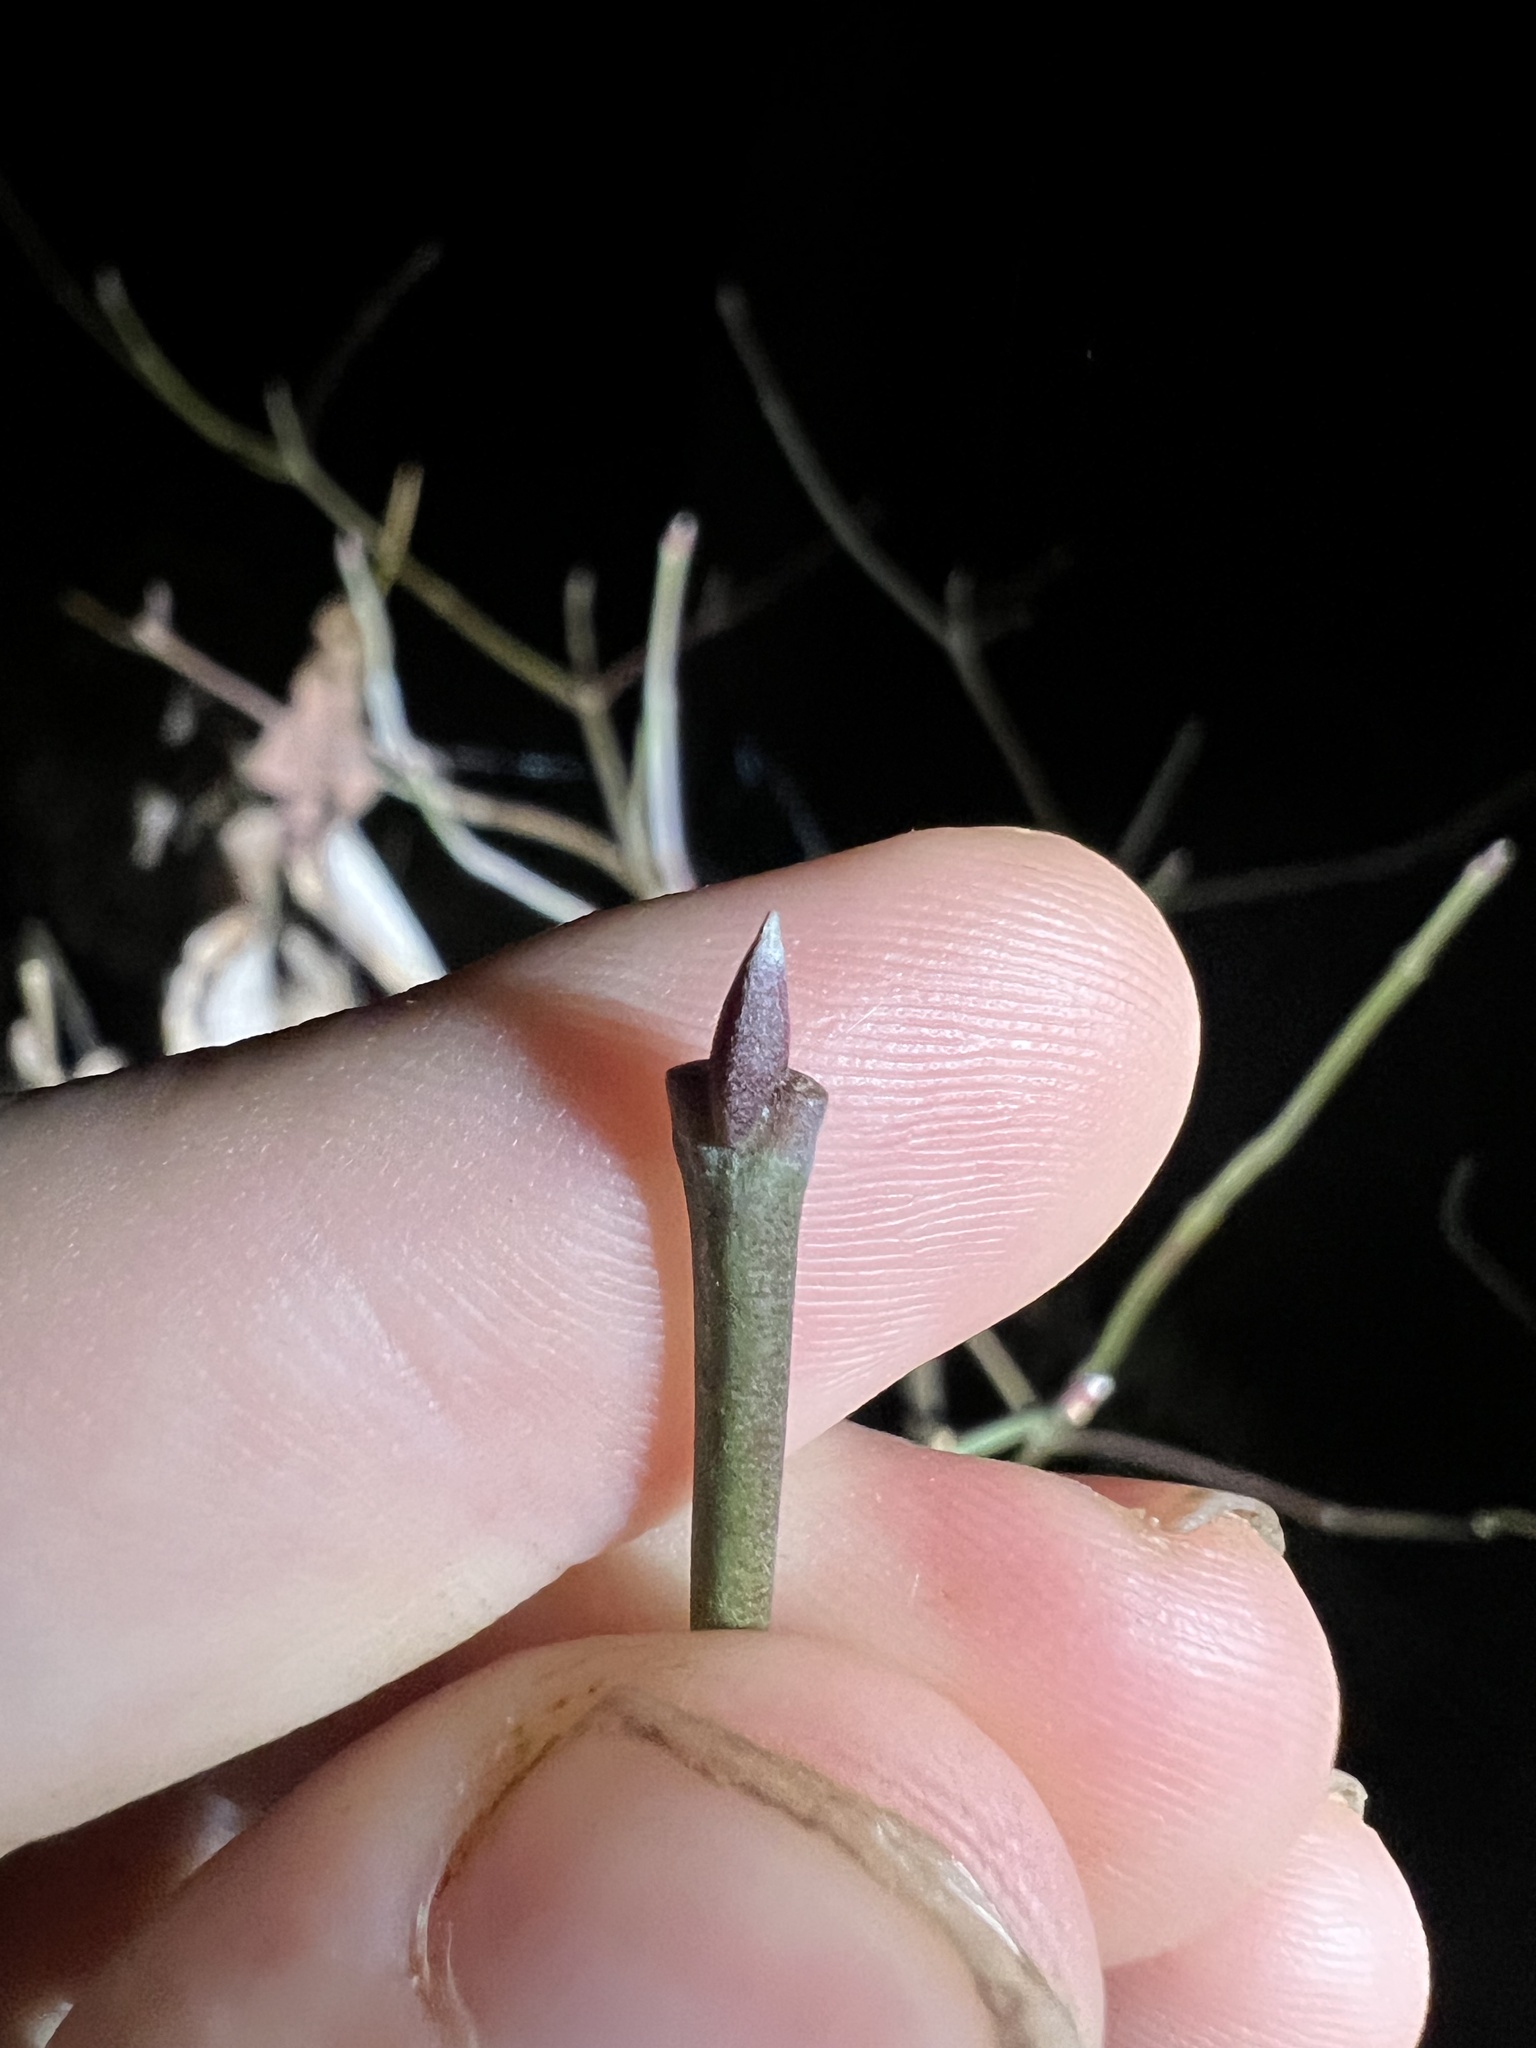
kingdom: Plantae
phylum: Tracheophyta
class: Magnoliopsida
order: Celastrales
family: Celastraceae
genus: Euonymus
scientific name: Euonymus americanus
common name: Bursting-heart
